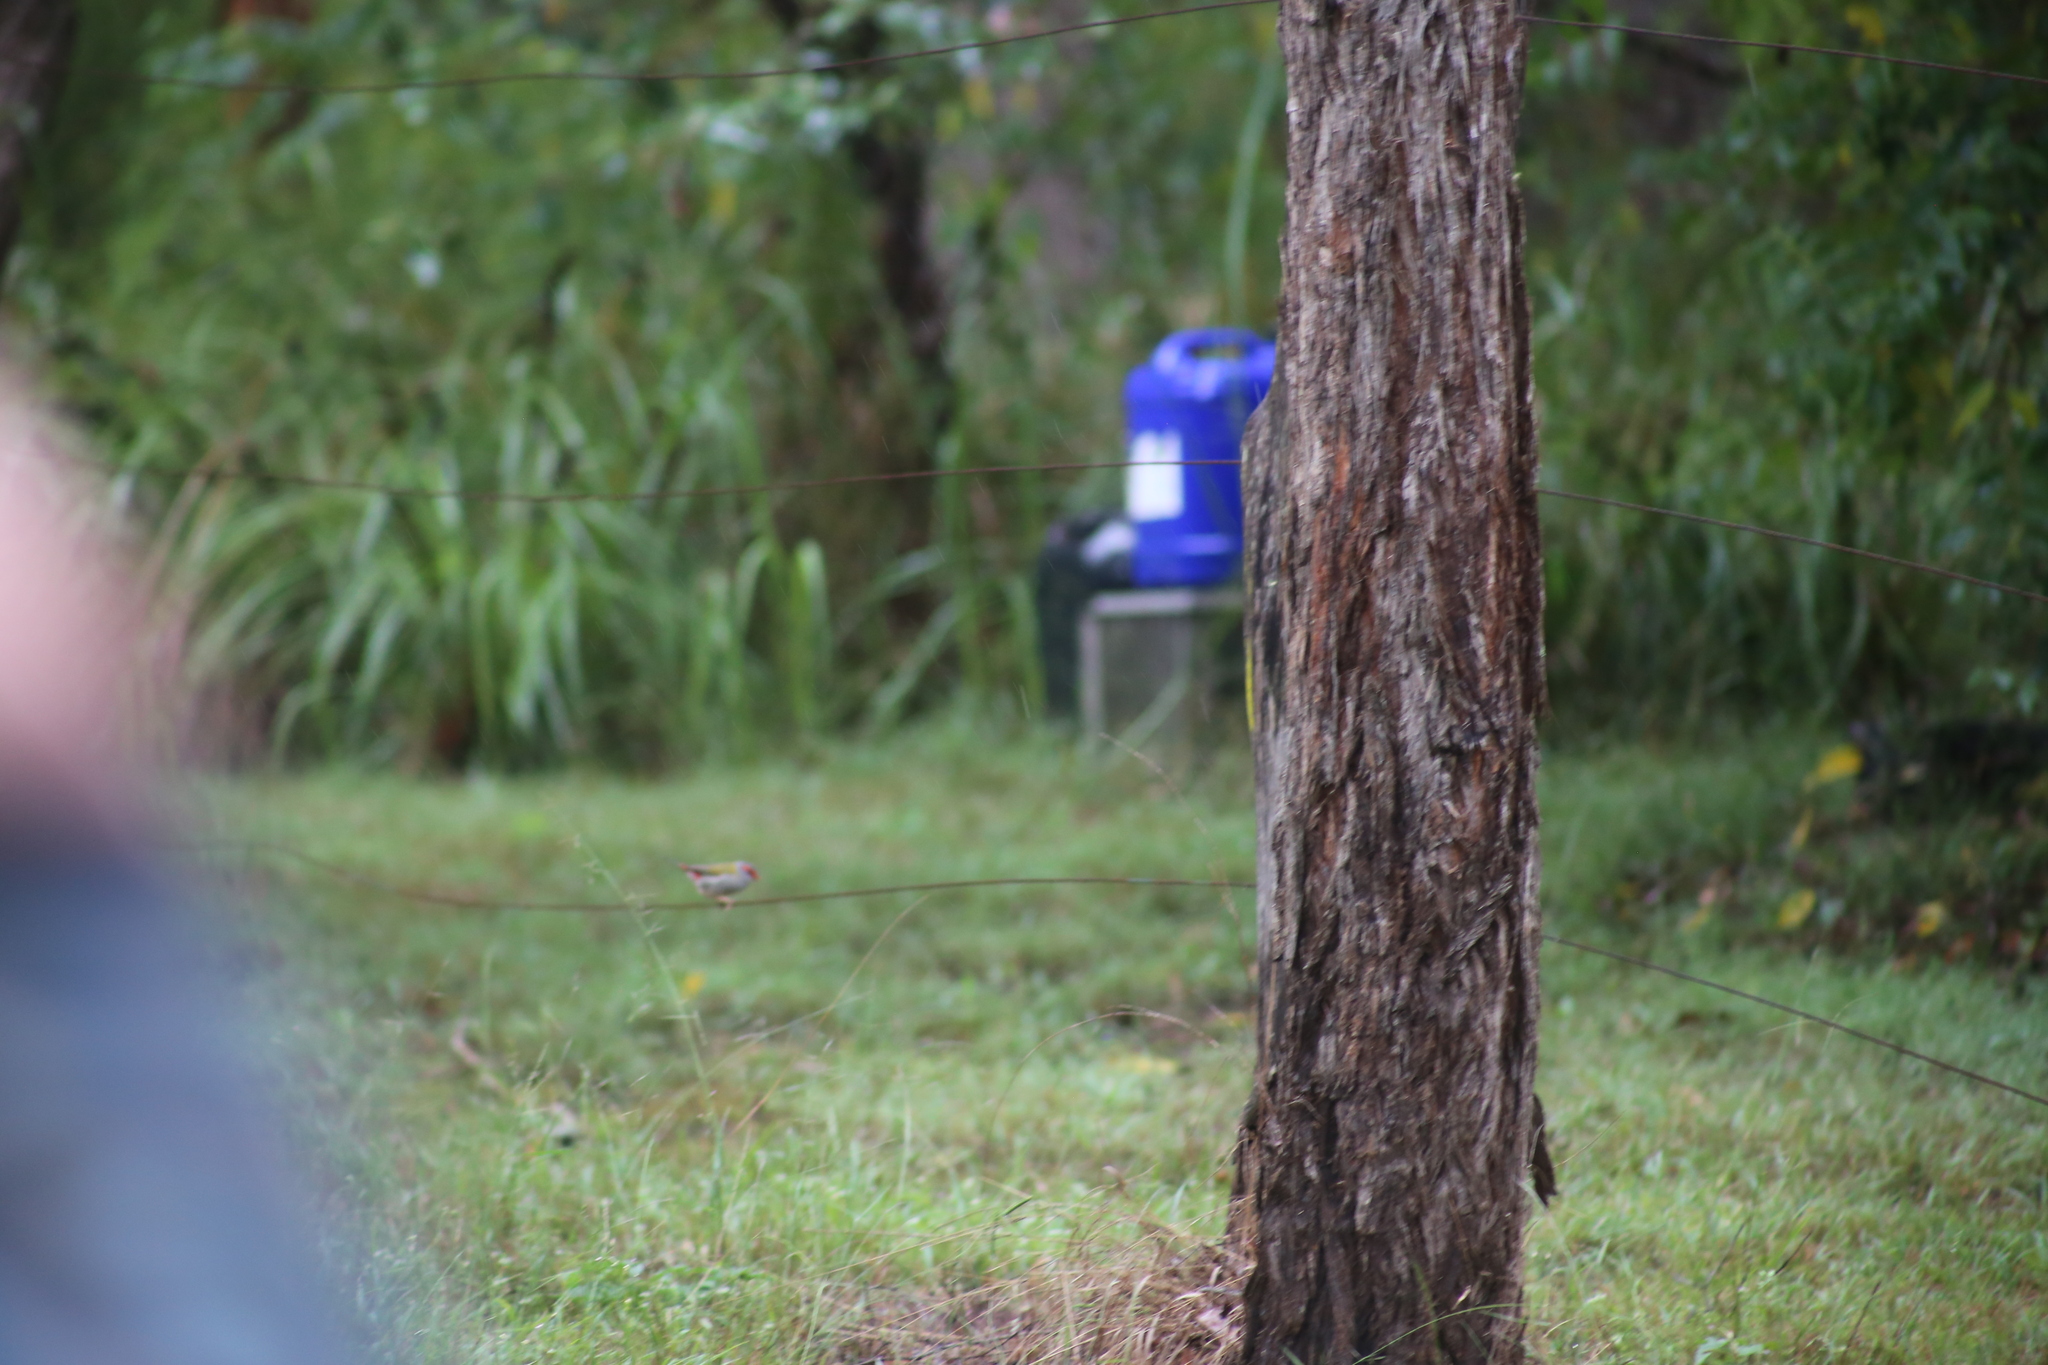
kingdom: Animalia
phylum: Chordata
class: Aves
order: Passeriformes
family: Estrildidae
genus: Neochmia
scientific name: Neochmia temporalis
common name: Red-browed finch
